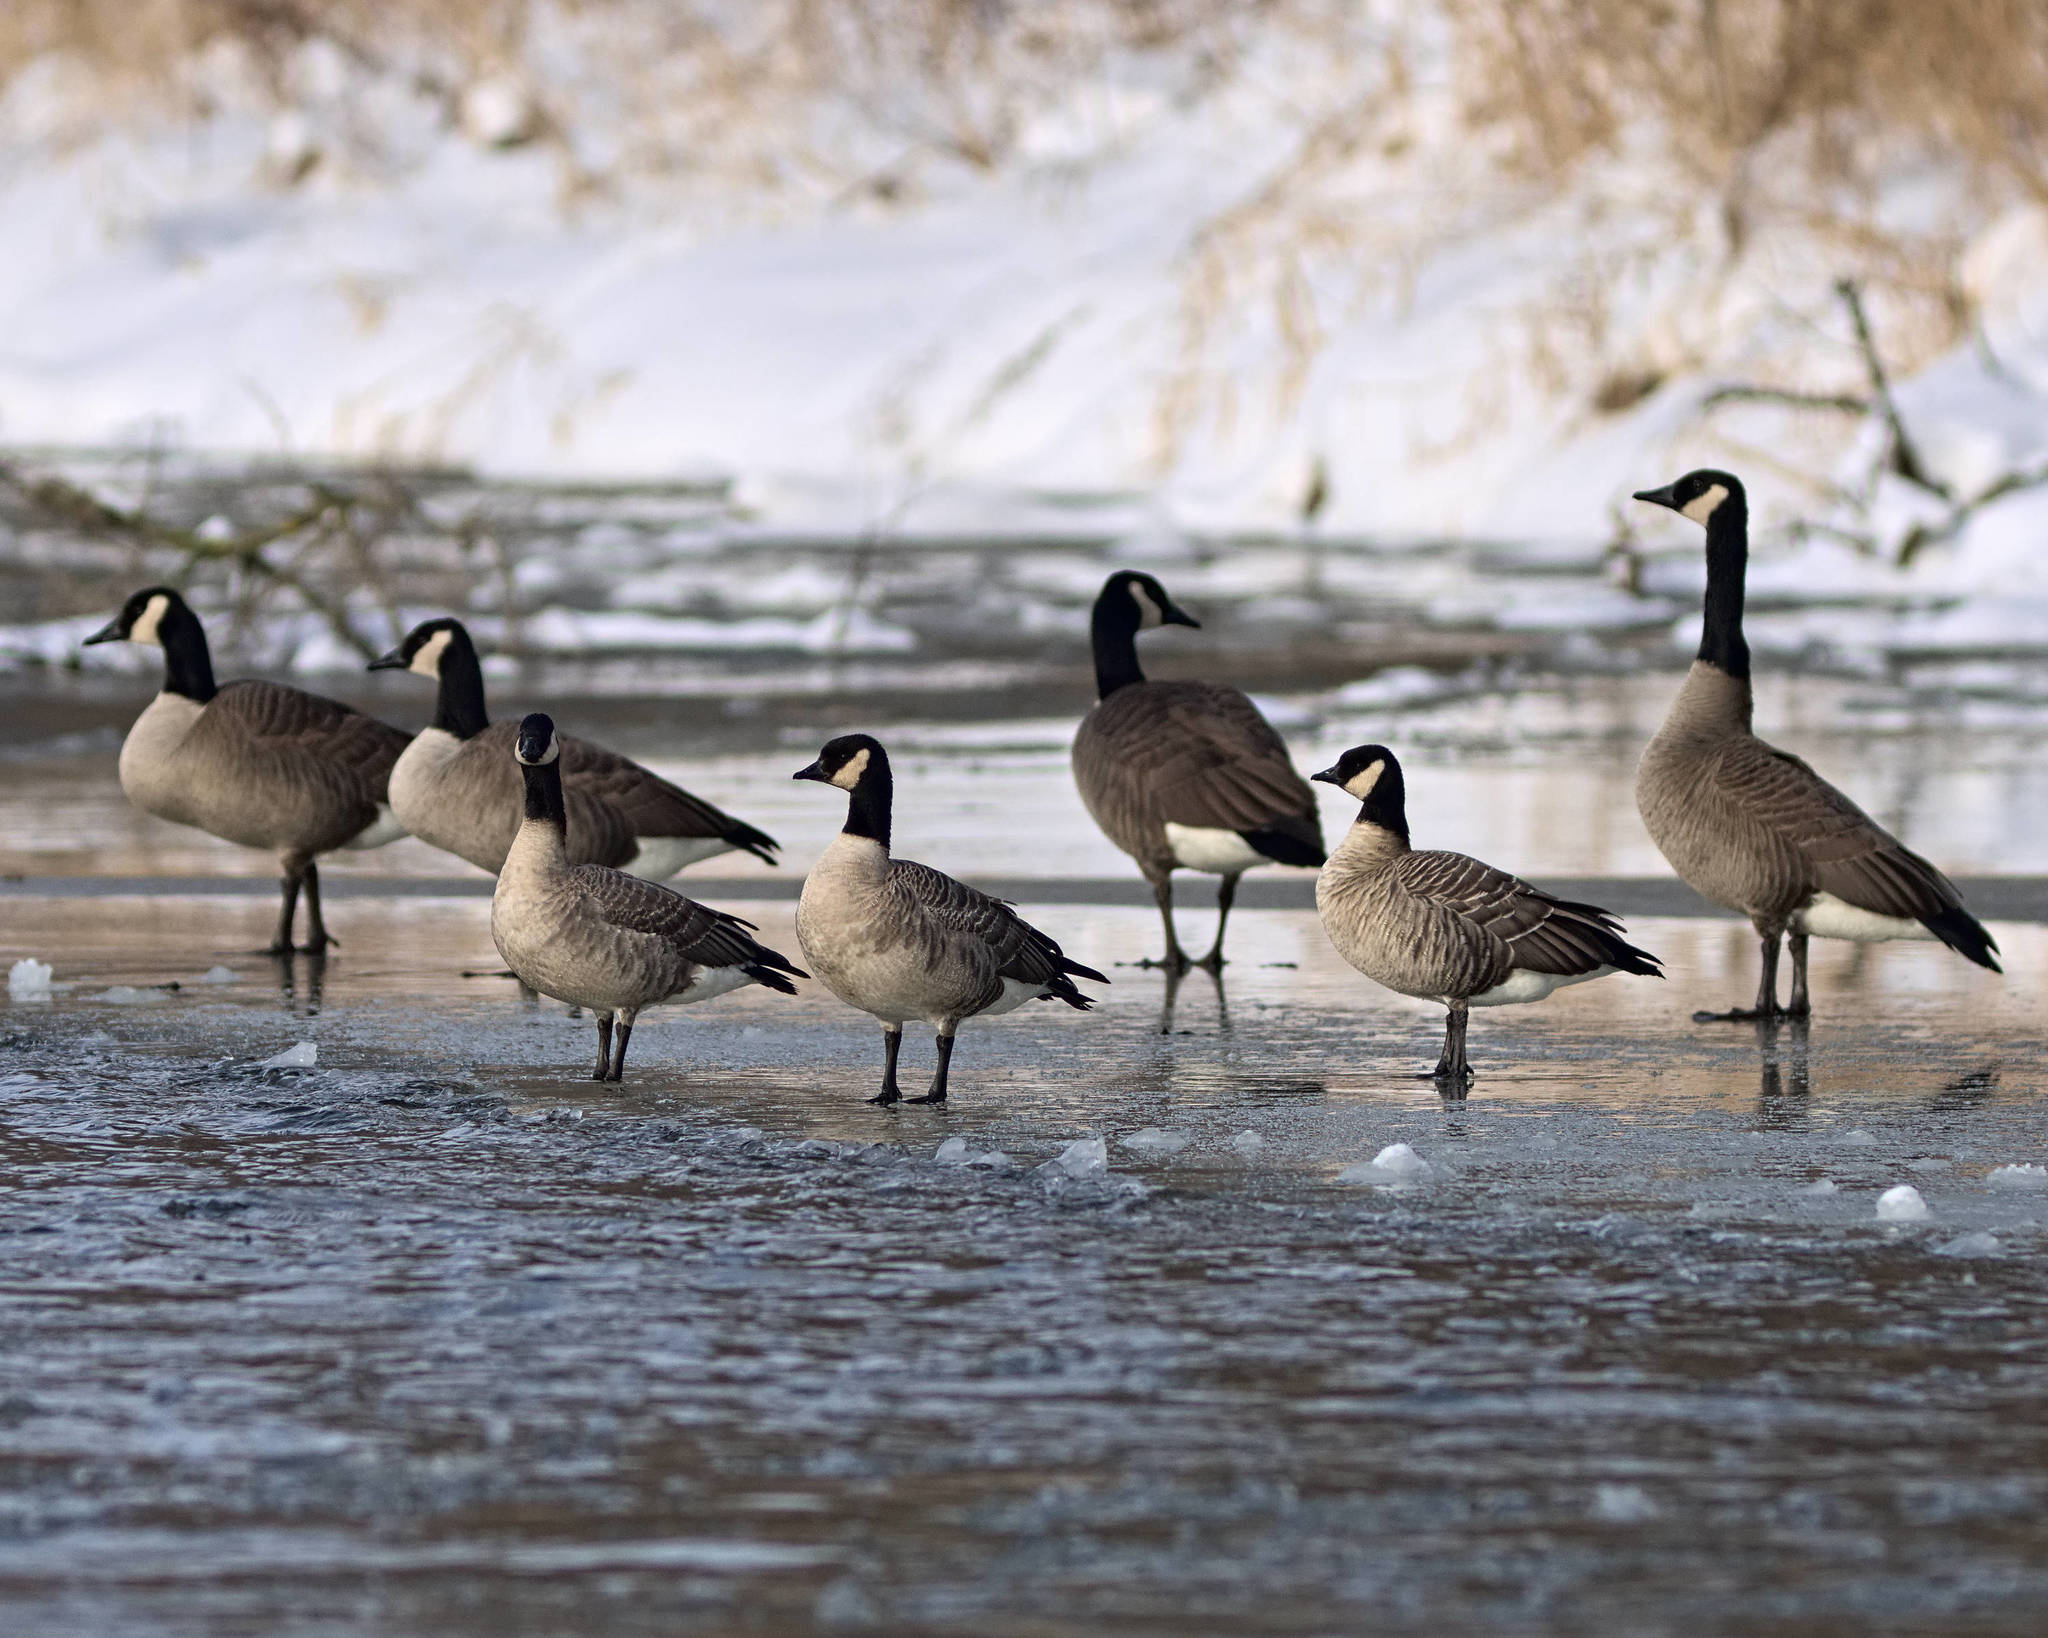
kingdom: Animalia
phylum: Chordata
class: Aves
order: Anseriformes
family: Anatidae
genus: Branta
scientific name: Branta hutchinsii
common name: Cackling goose
